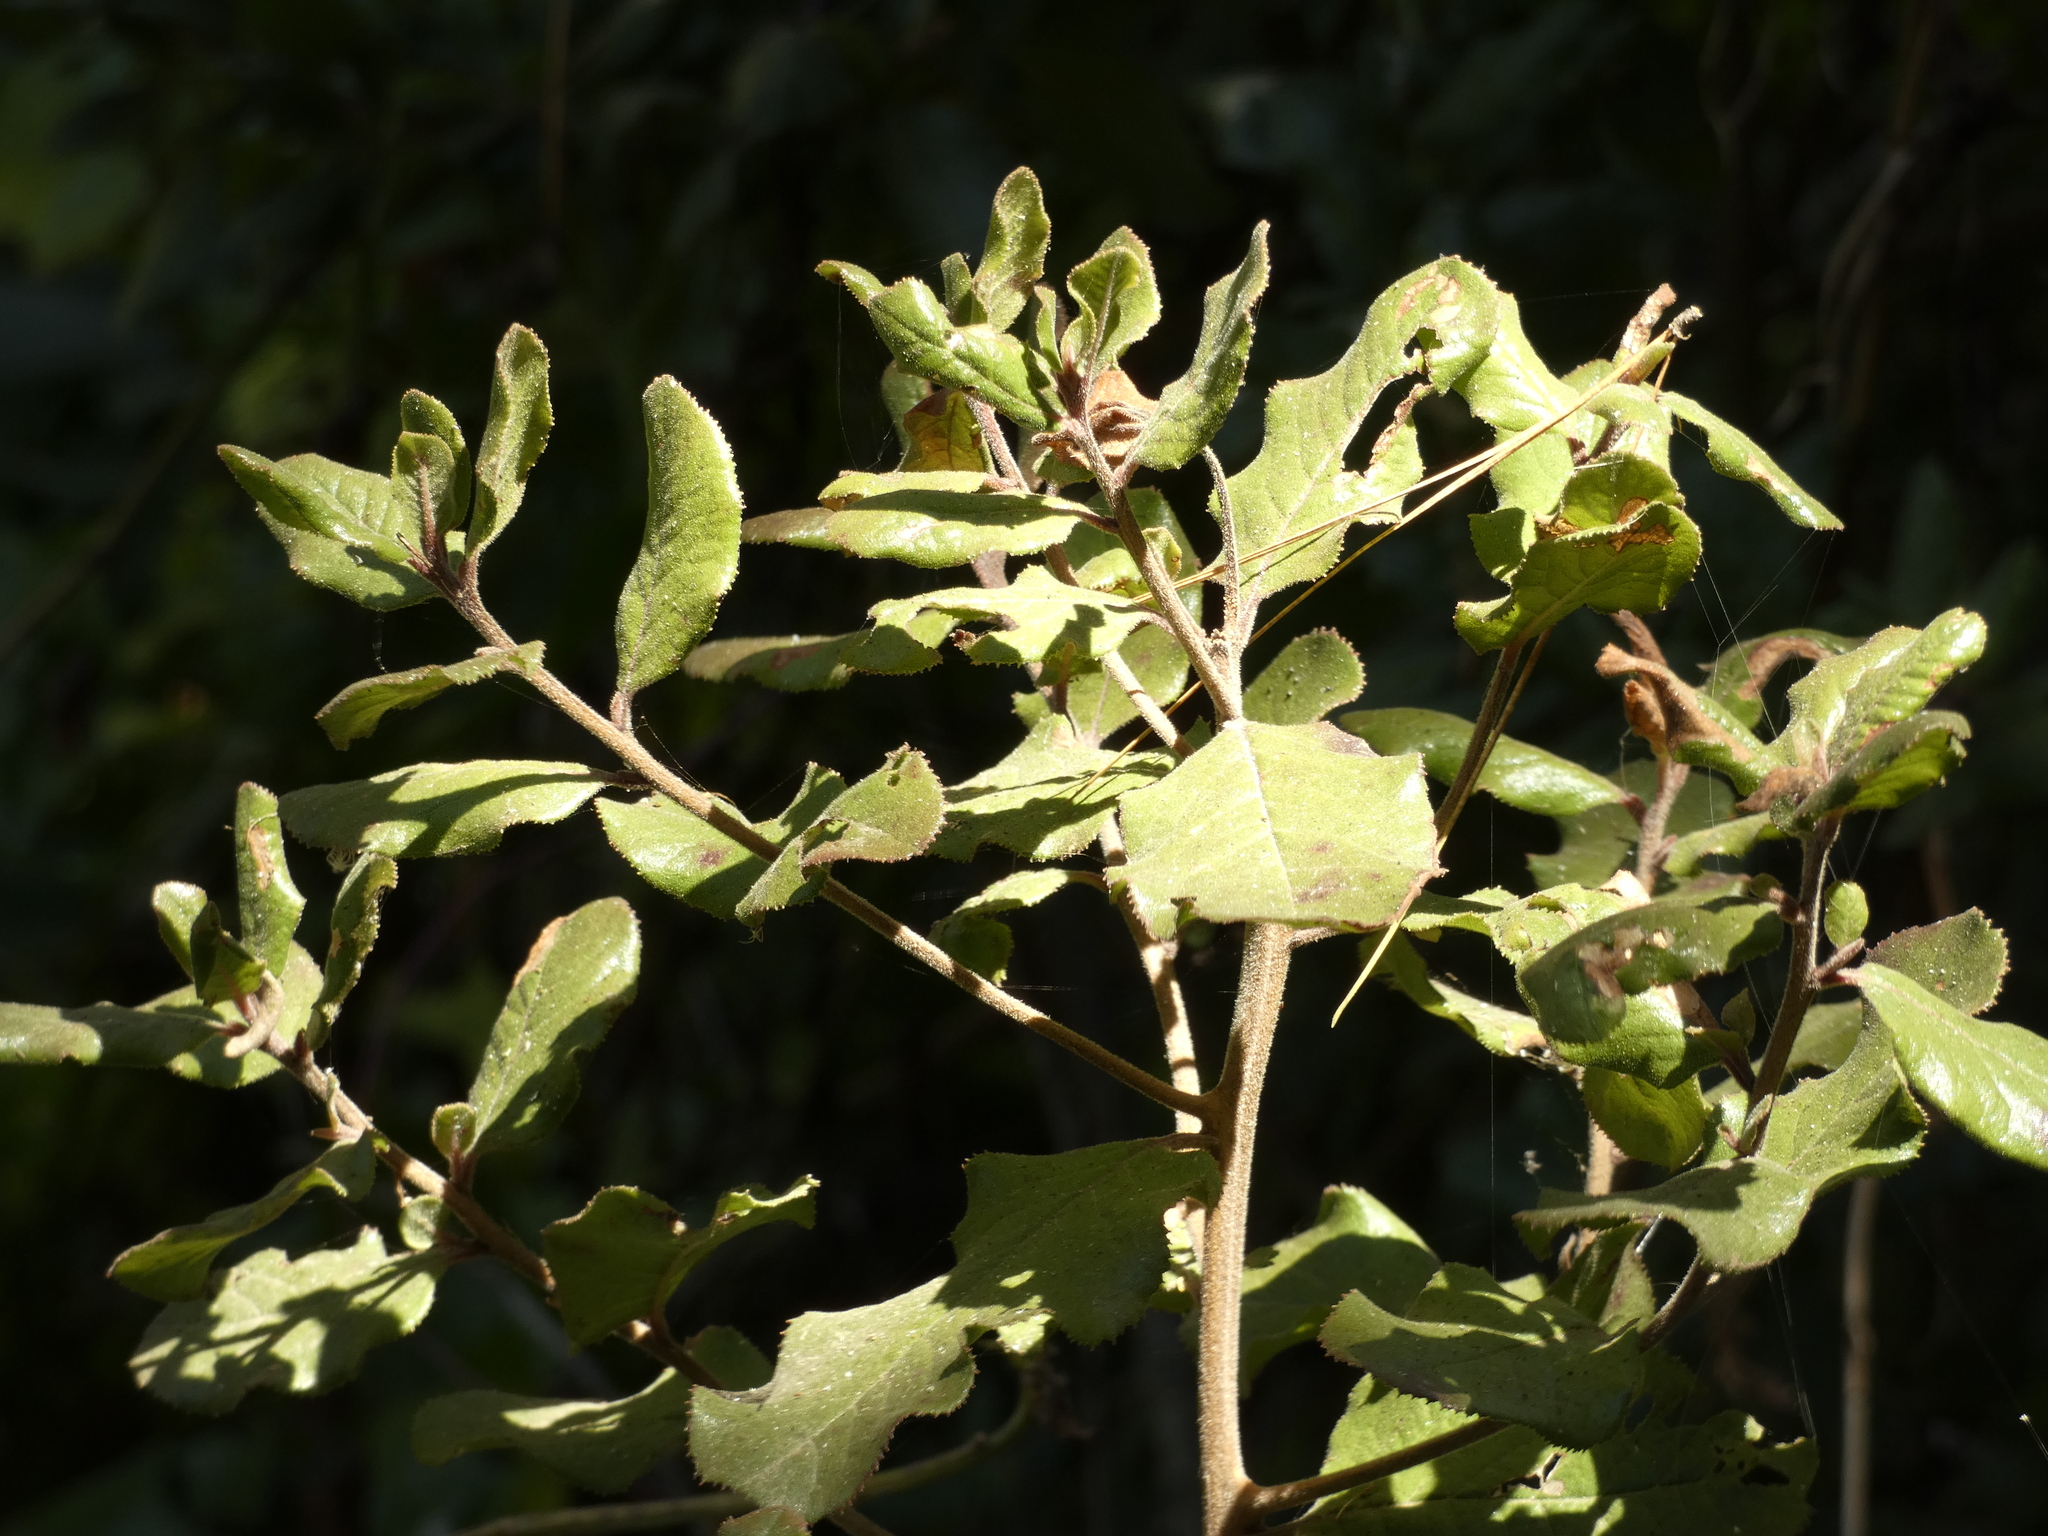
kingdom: Plantae
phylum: Tracheophyta
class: Magnoliopsida
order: Escalloniales
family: Escalloniaceae
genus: Escallonia
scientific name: Escallonia pulverulenta
